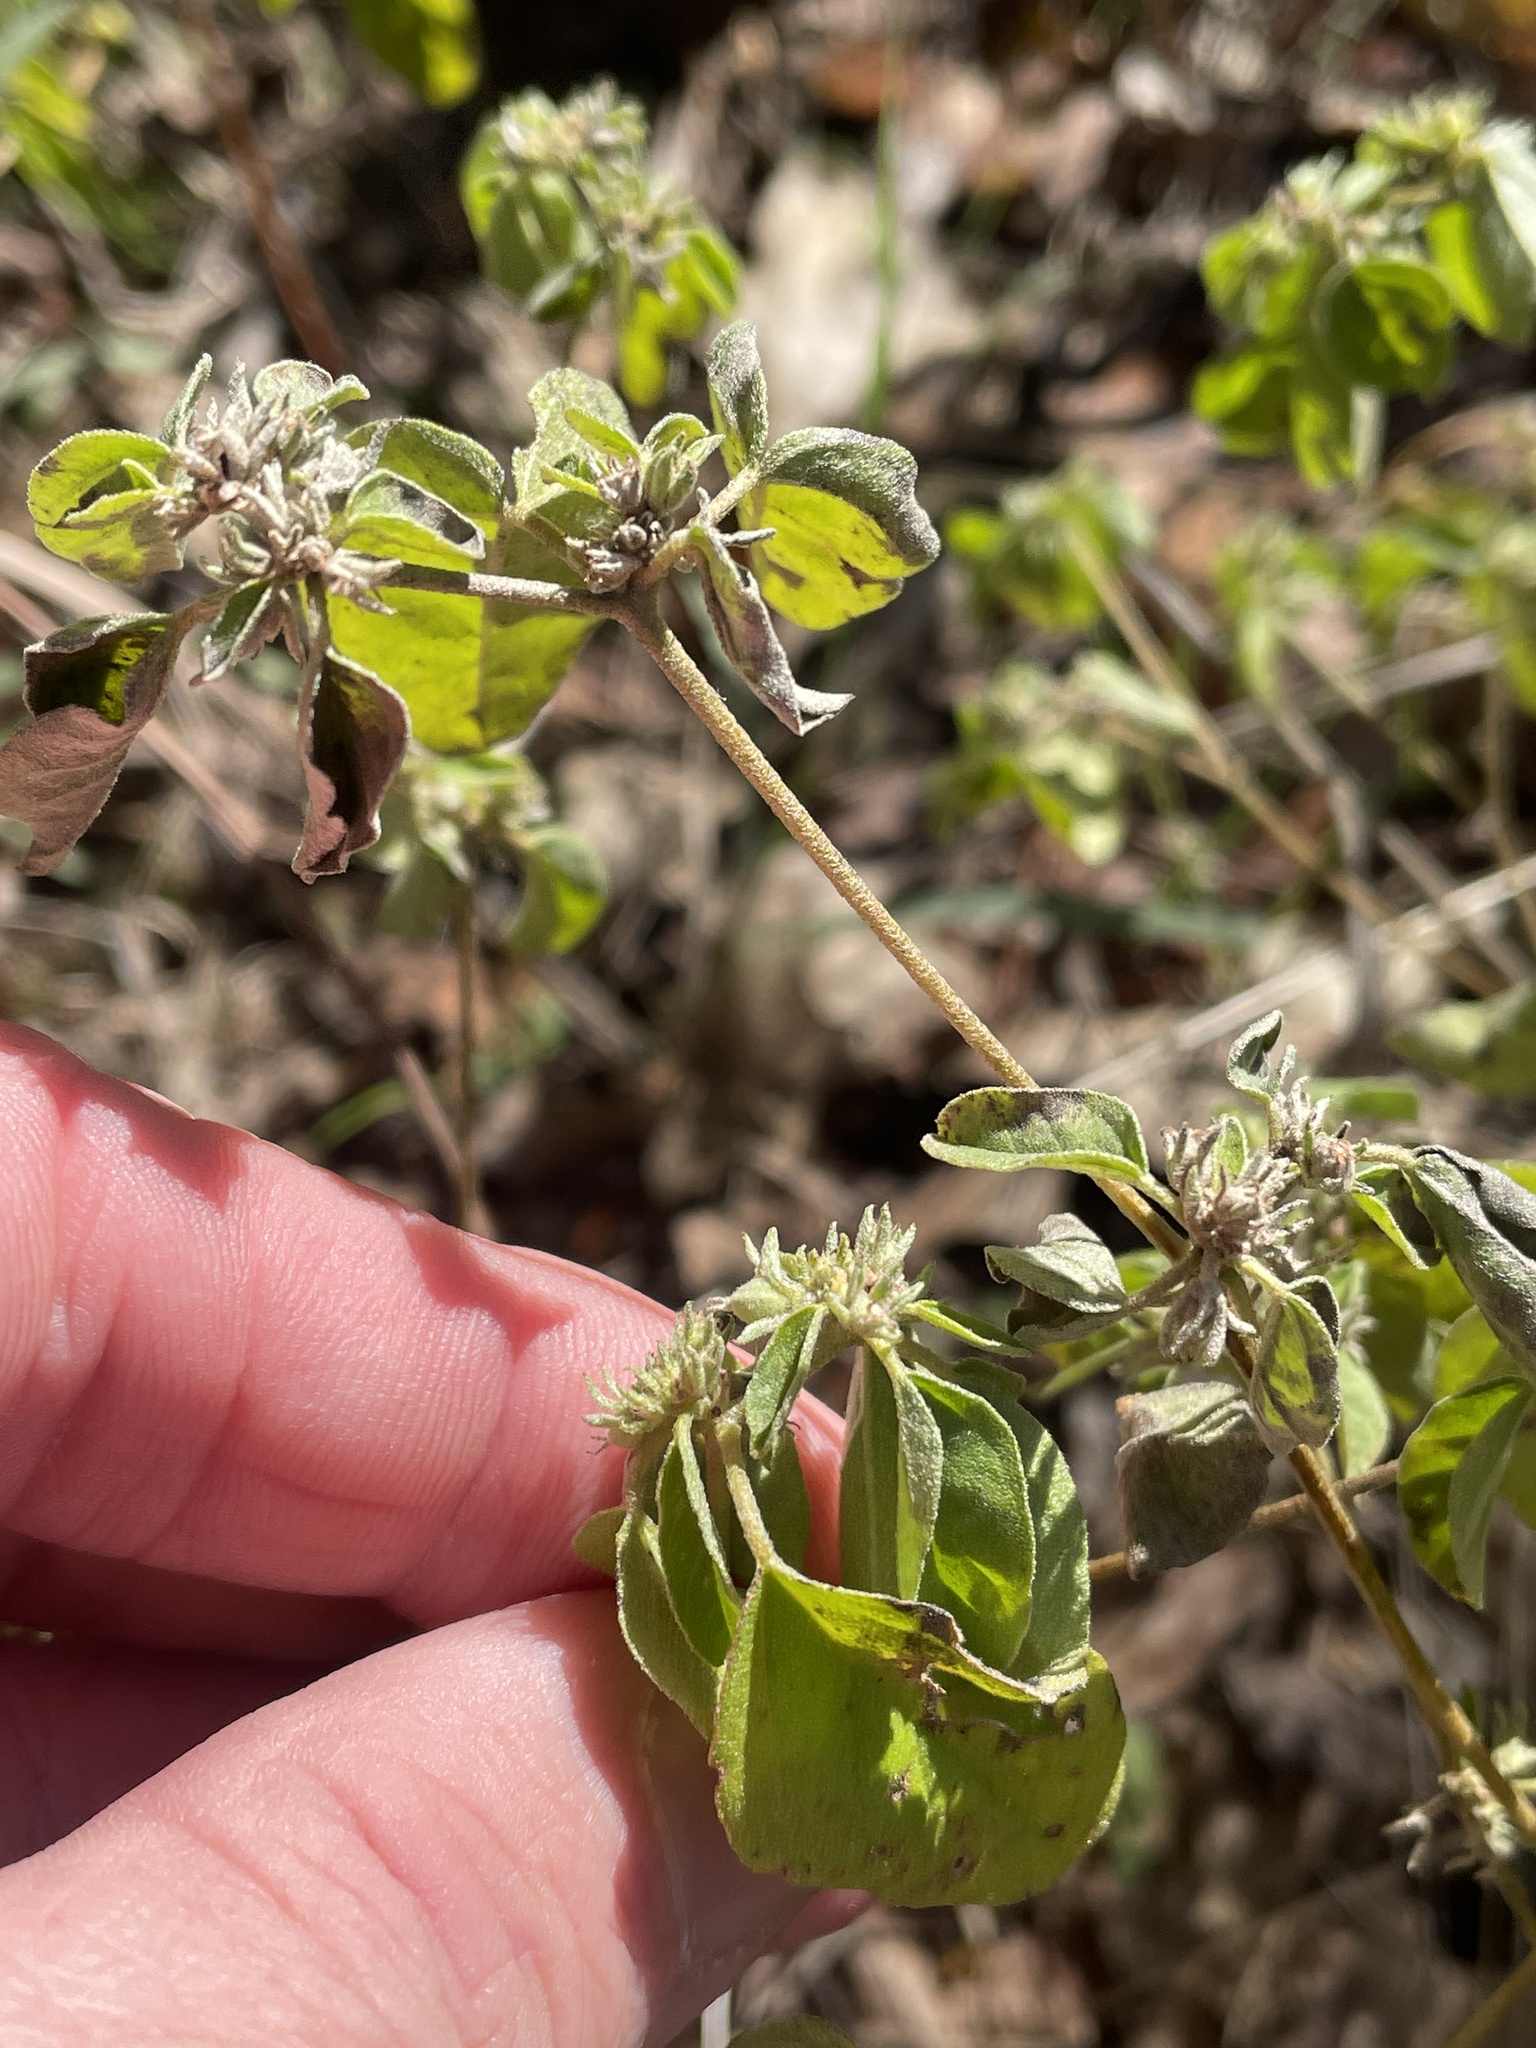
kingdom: Plantae
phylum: Tracheophyta
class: Magnoliopsida
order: Malpighiales
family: Euphorbiaceae
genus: Croton
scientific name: Croton monanthogynus
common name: One-seed croton
